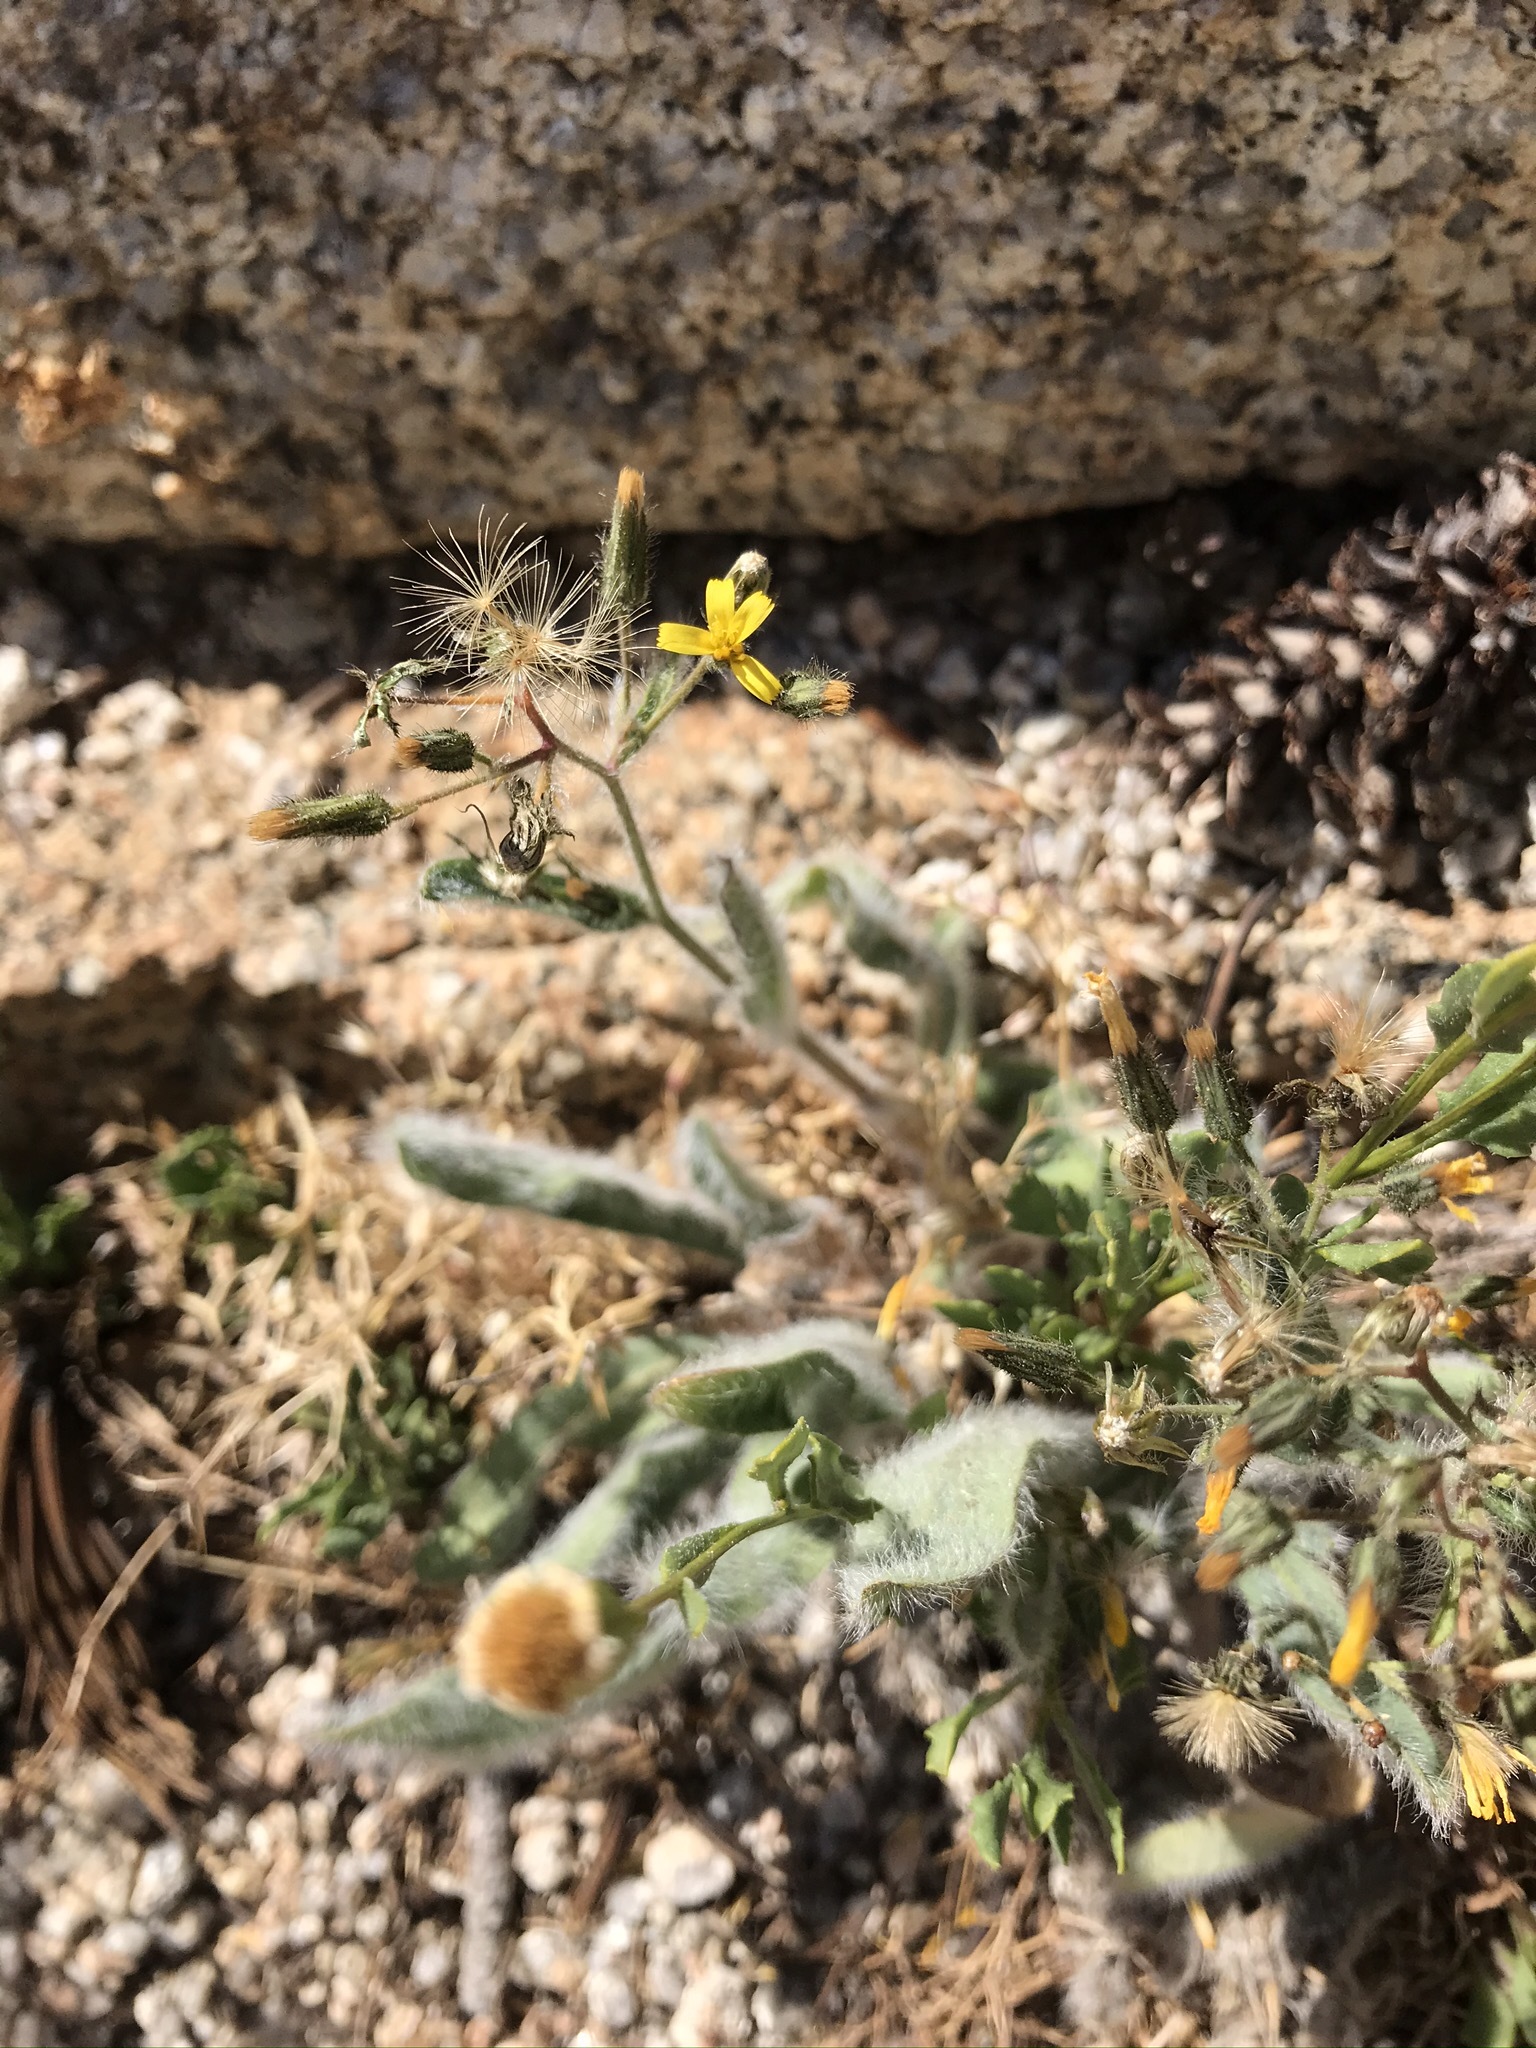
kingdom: Plantae
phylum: Tracheophyta
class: Magnoliopsida
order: Asterales
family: Asteraceae
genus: Hieracium
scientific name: Hieracium horridum
